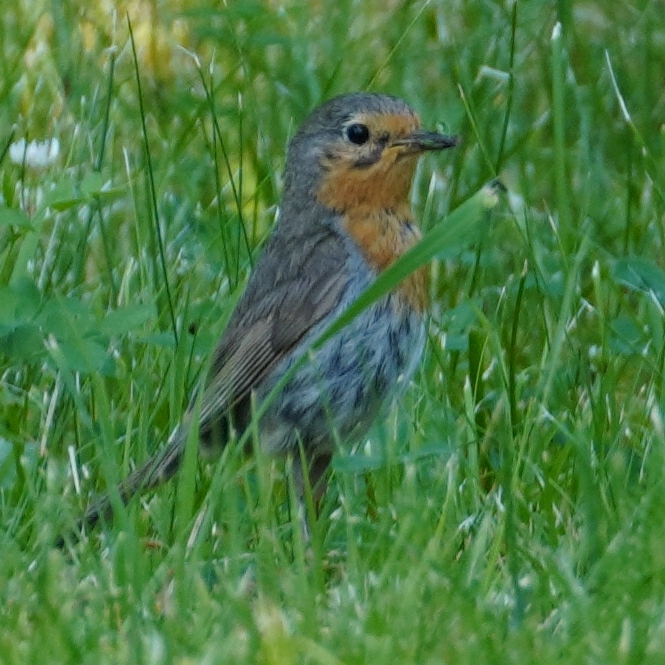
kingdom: Animalia
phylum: Chordata
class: Aves
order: Passeriformes
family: Muscicapidae
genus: Erithacus
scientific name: Erithacus rubecula
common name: European robin
